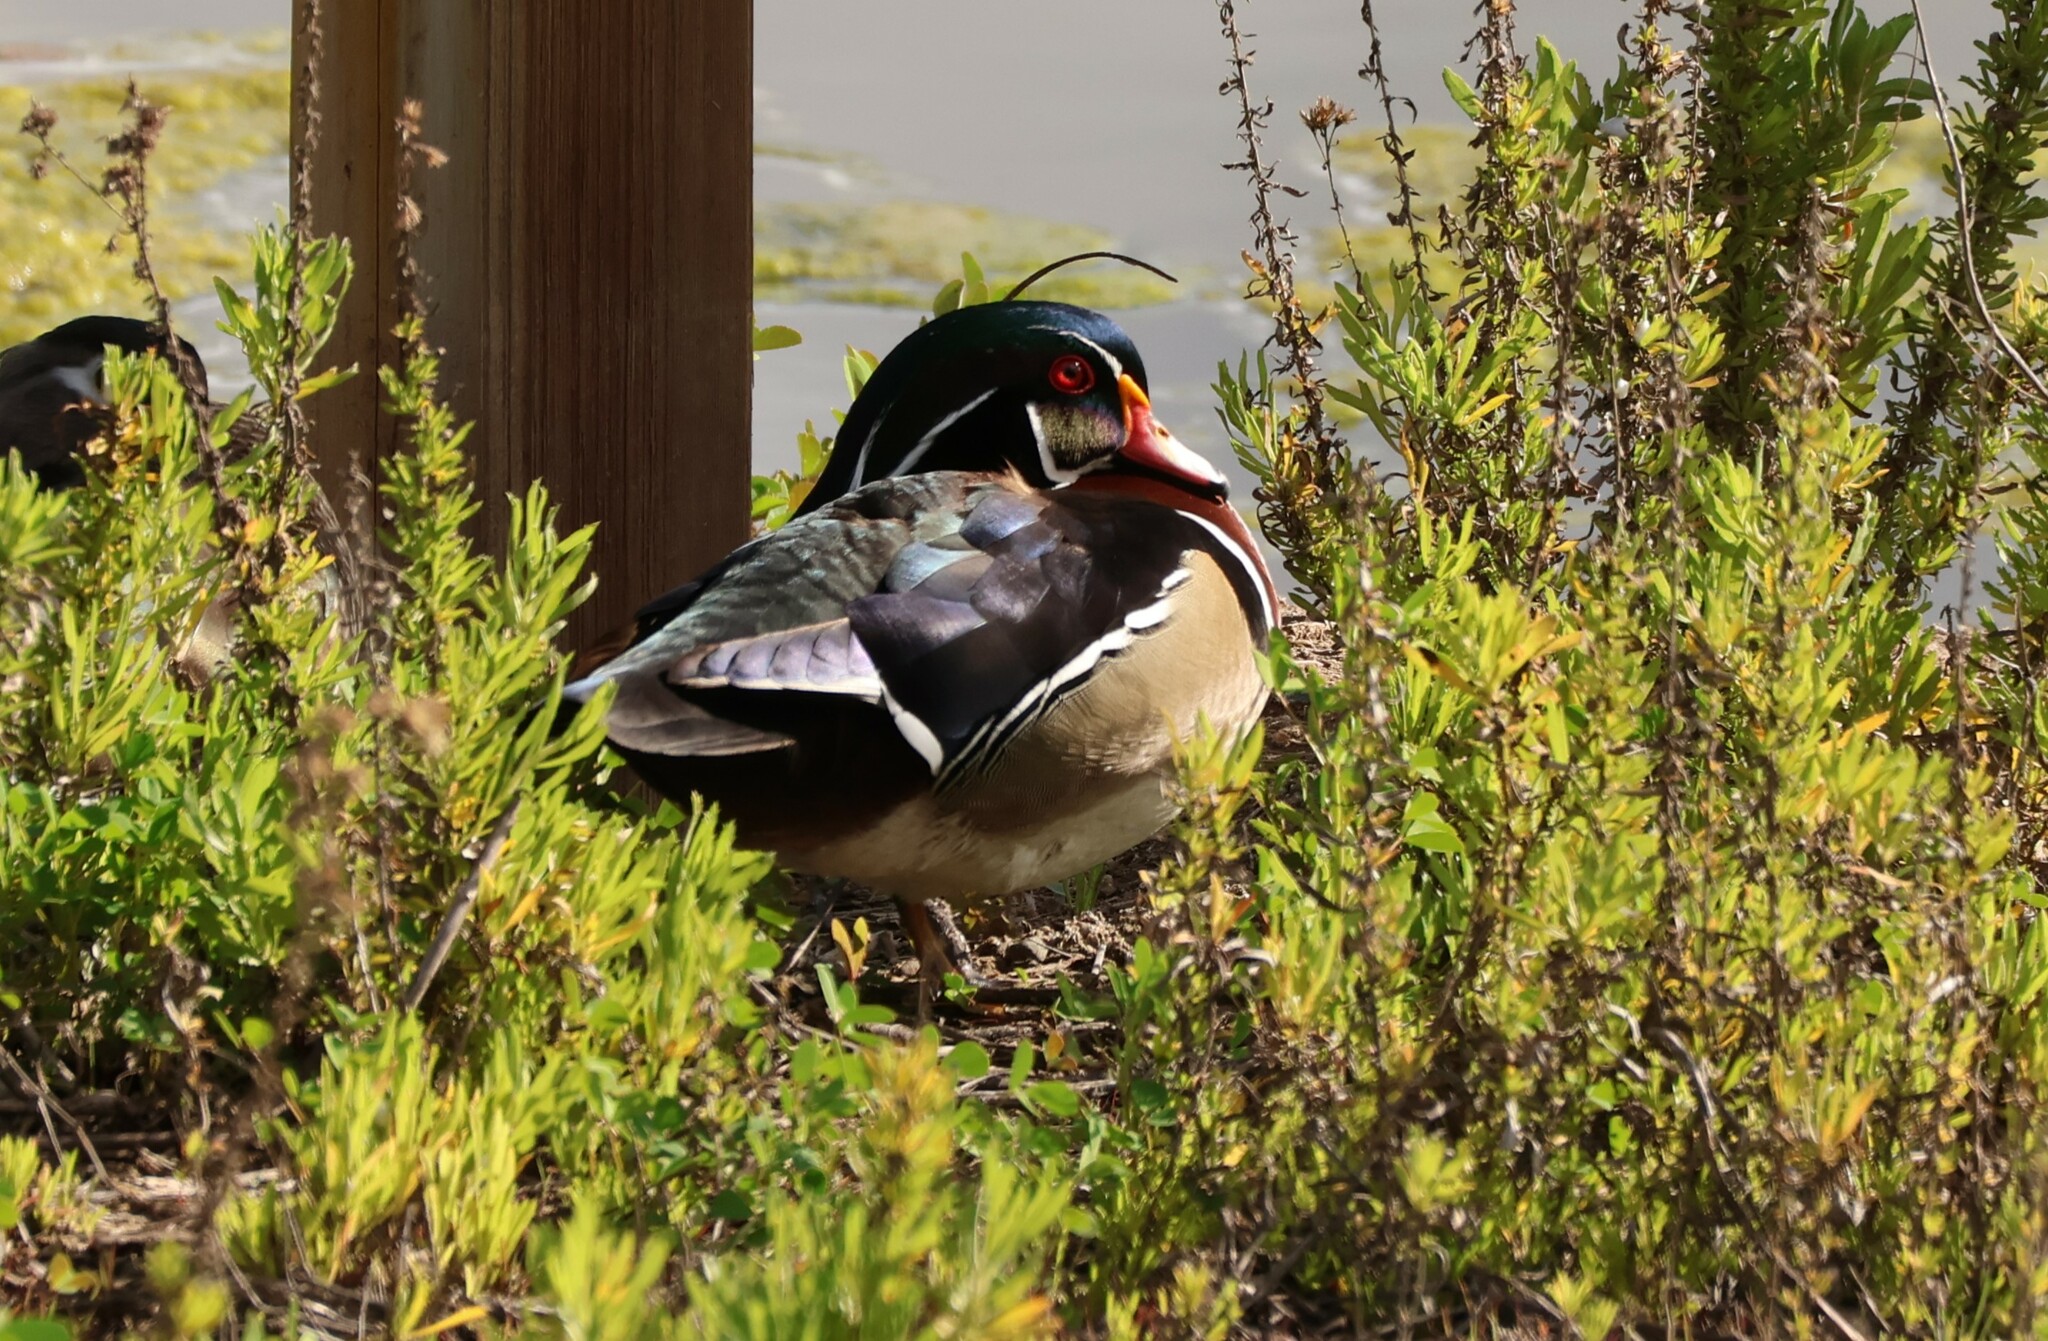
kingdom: Animalia
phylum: Chordata
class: Aves
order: Anseriformes
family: Anatidae
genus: Aix
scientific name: Aix sponsa
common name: Wood duck
